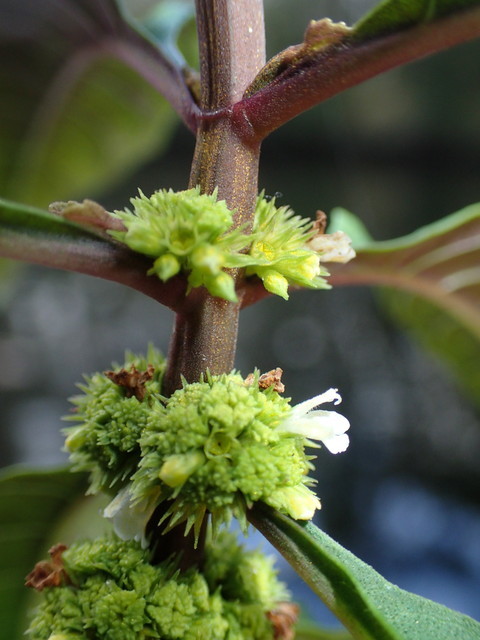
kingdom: Plantae
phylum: Tracheophyta
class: Magnoliopsida
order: Lamiales
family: Lamiaceae
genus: Lycopus
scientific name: Lycopus rubellus
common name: Stalked bugleweed
